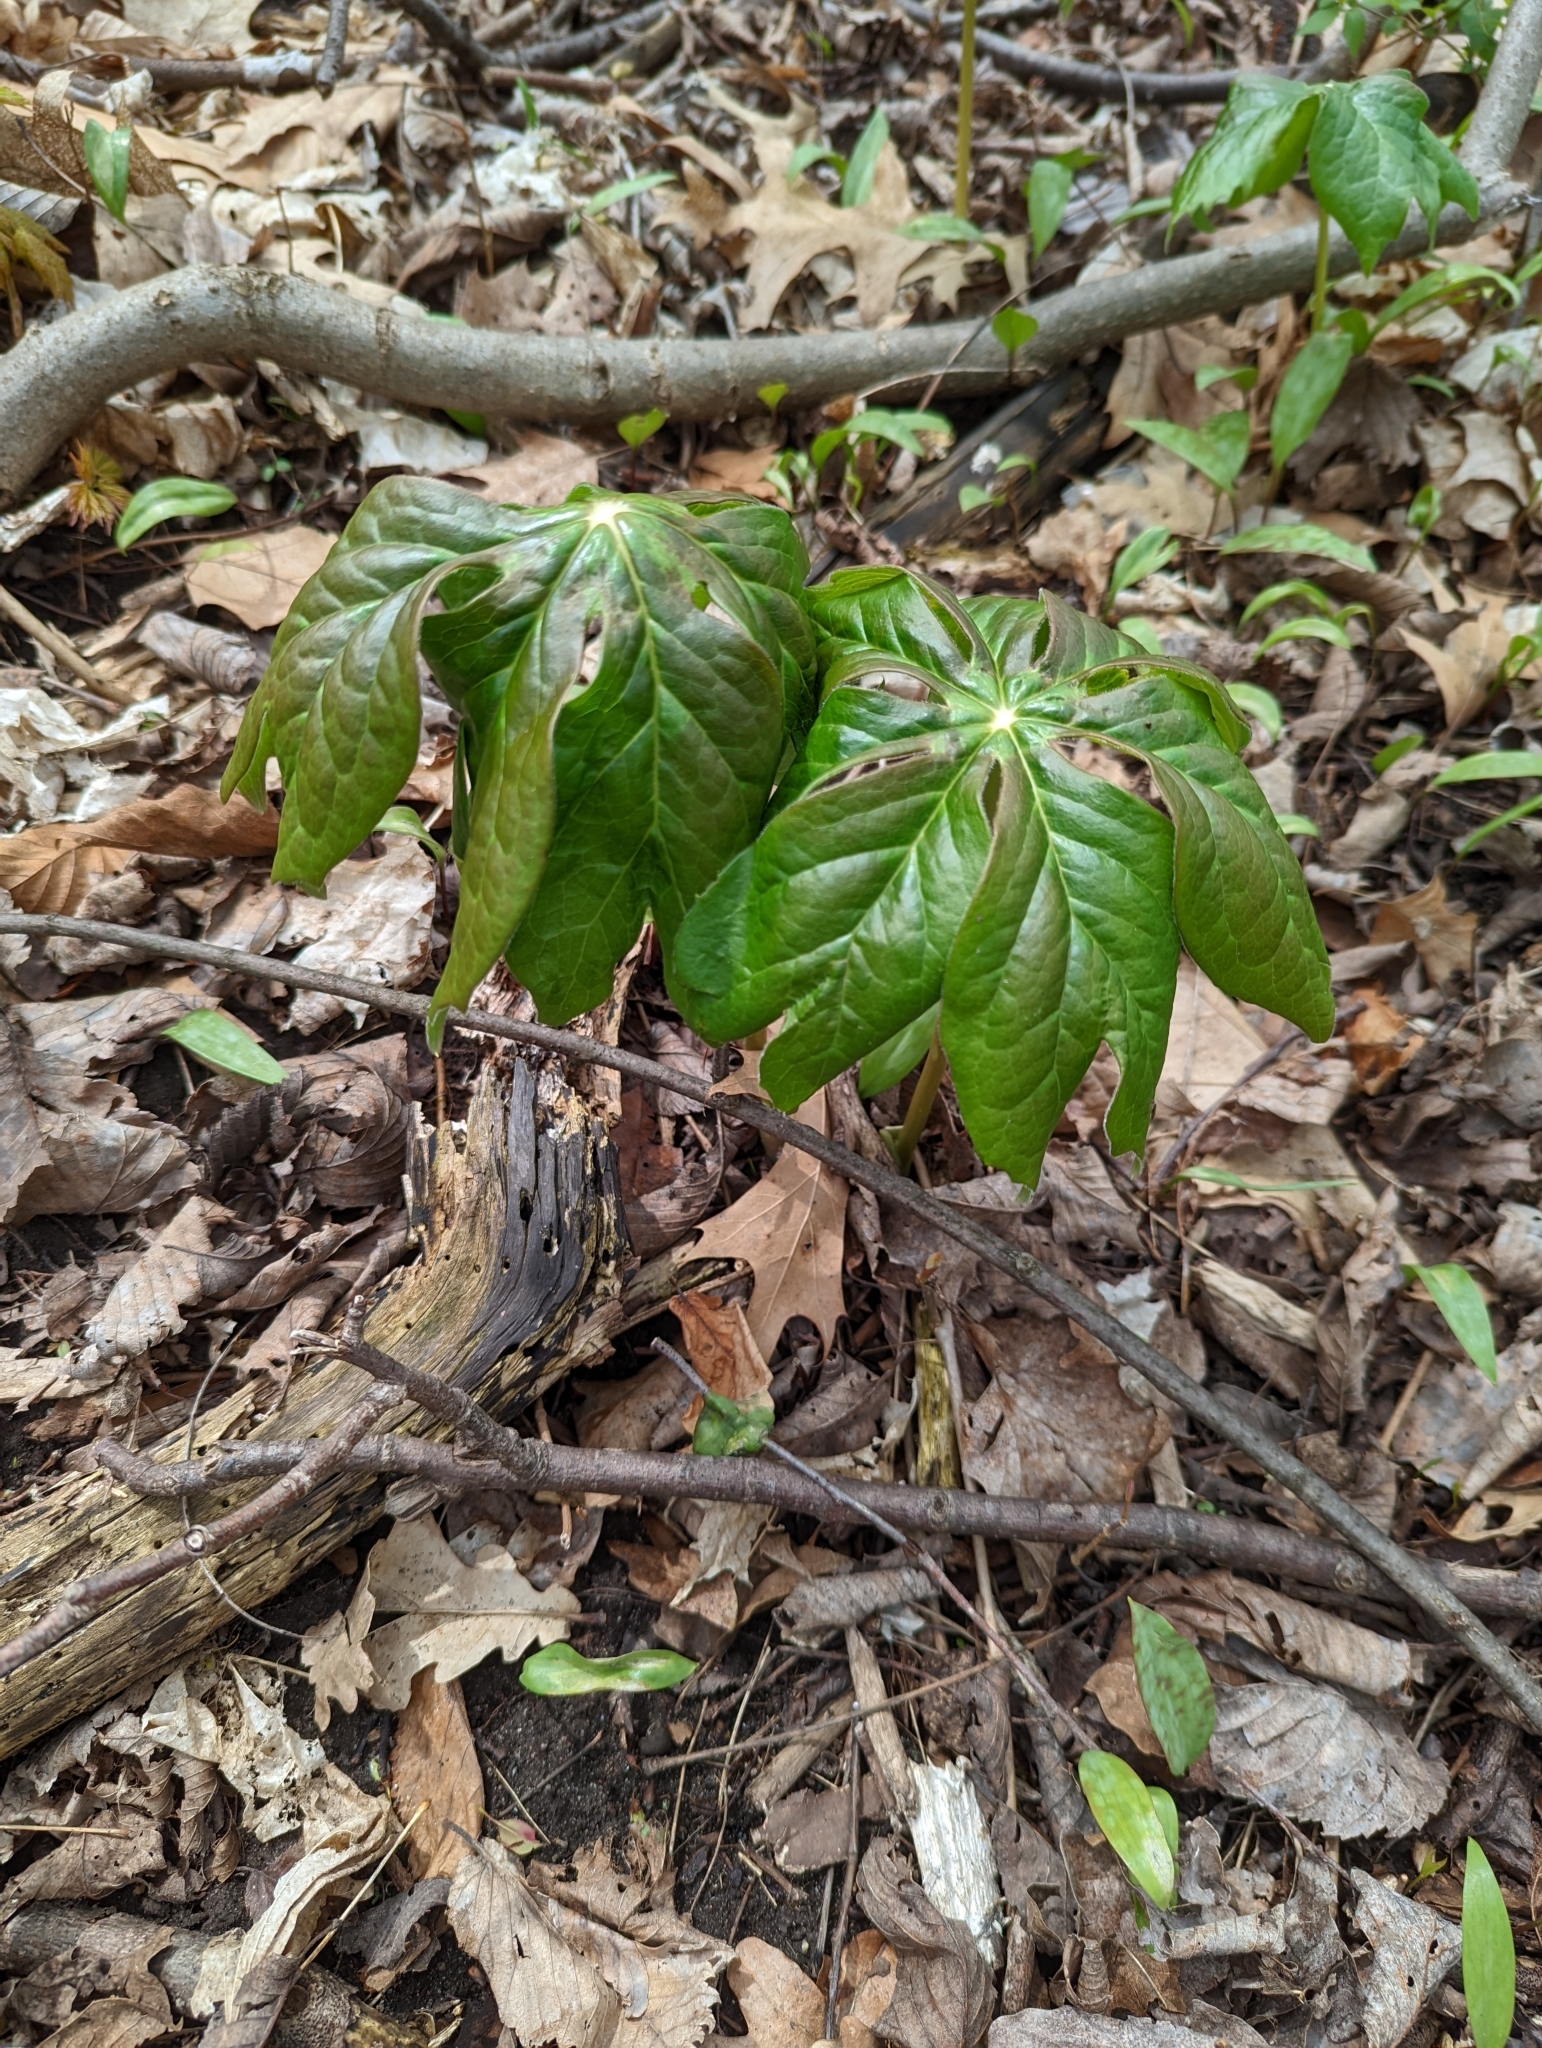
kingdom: Plantae
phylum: Tracheophyta
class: Magnoliopsida
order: Ranunculales
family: Berberidaceae
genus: Podophyllum
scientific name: Podophyllum peltatum
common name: Wild mandrake
